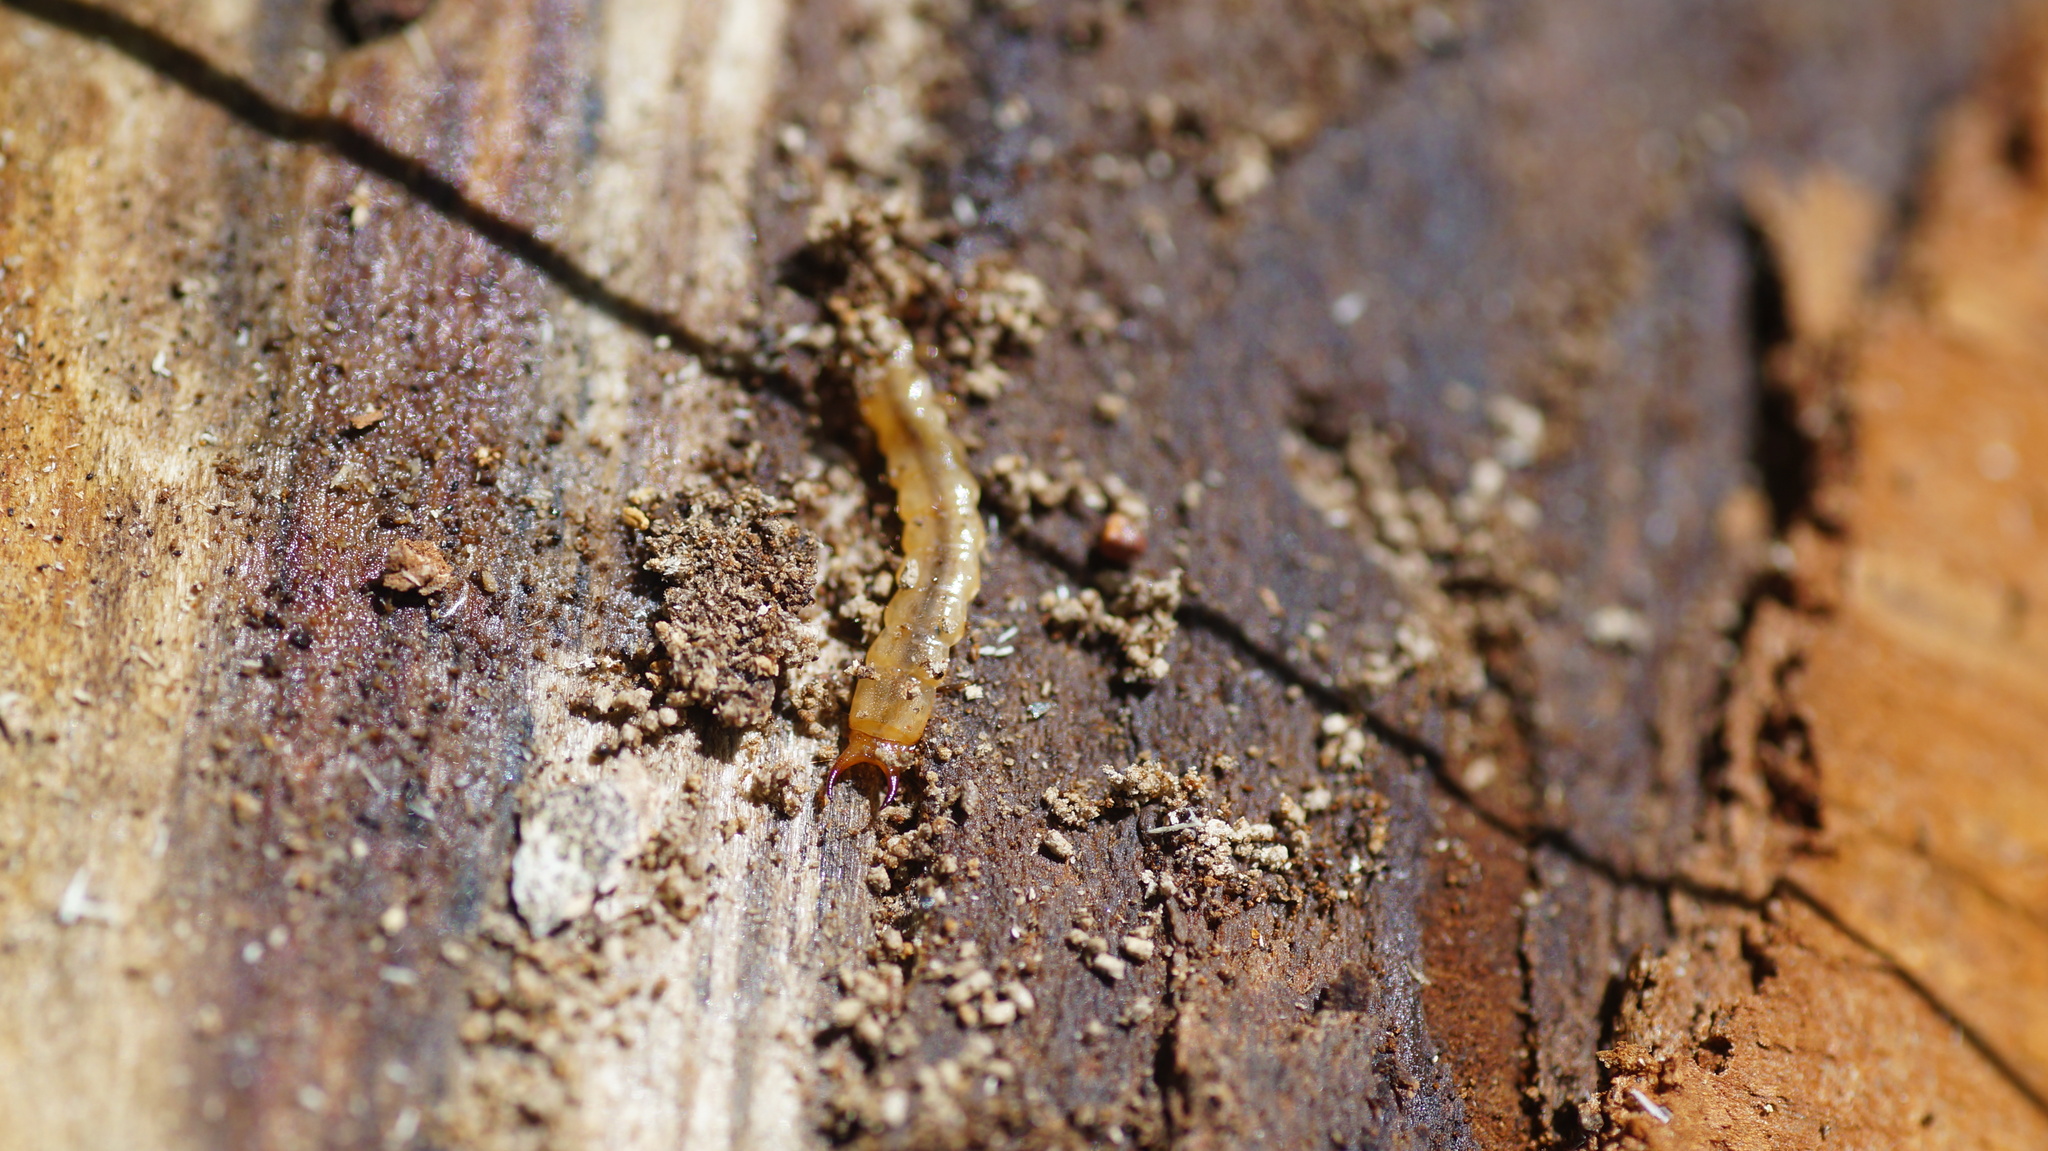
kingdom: Animalia
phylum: Arthropoda
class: Insecta
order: Coleoptera
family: Pyrochroidae
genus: Schizotus
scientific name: Schizotus pectinicornis
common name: Scarce cardinal beetle
